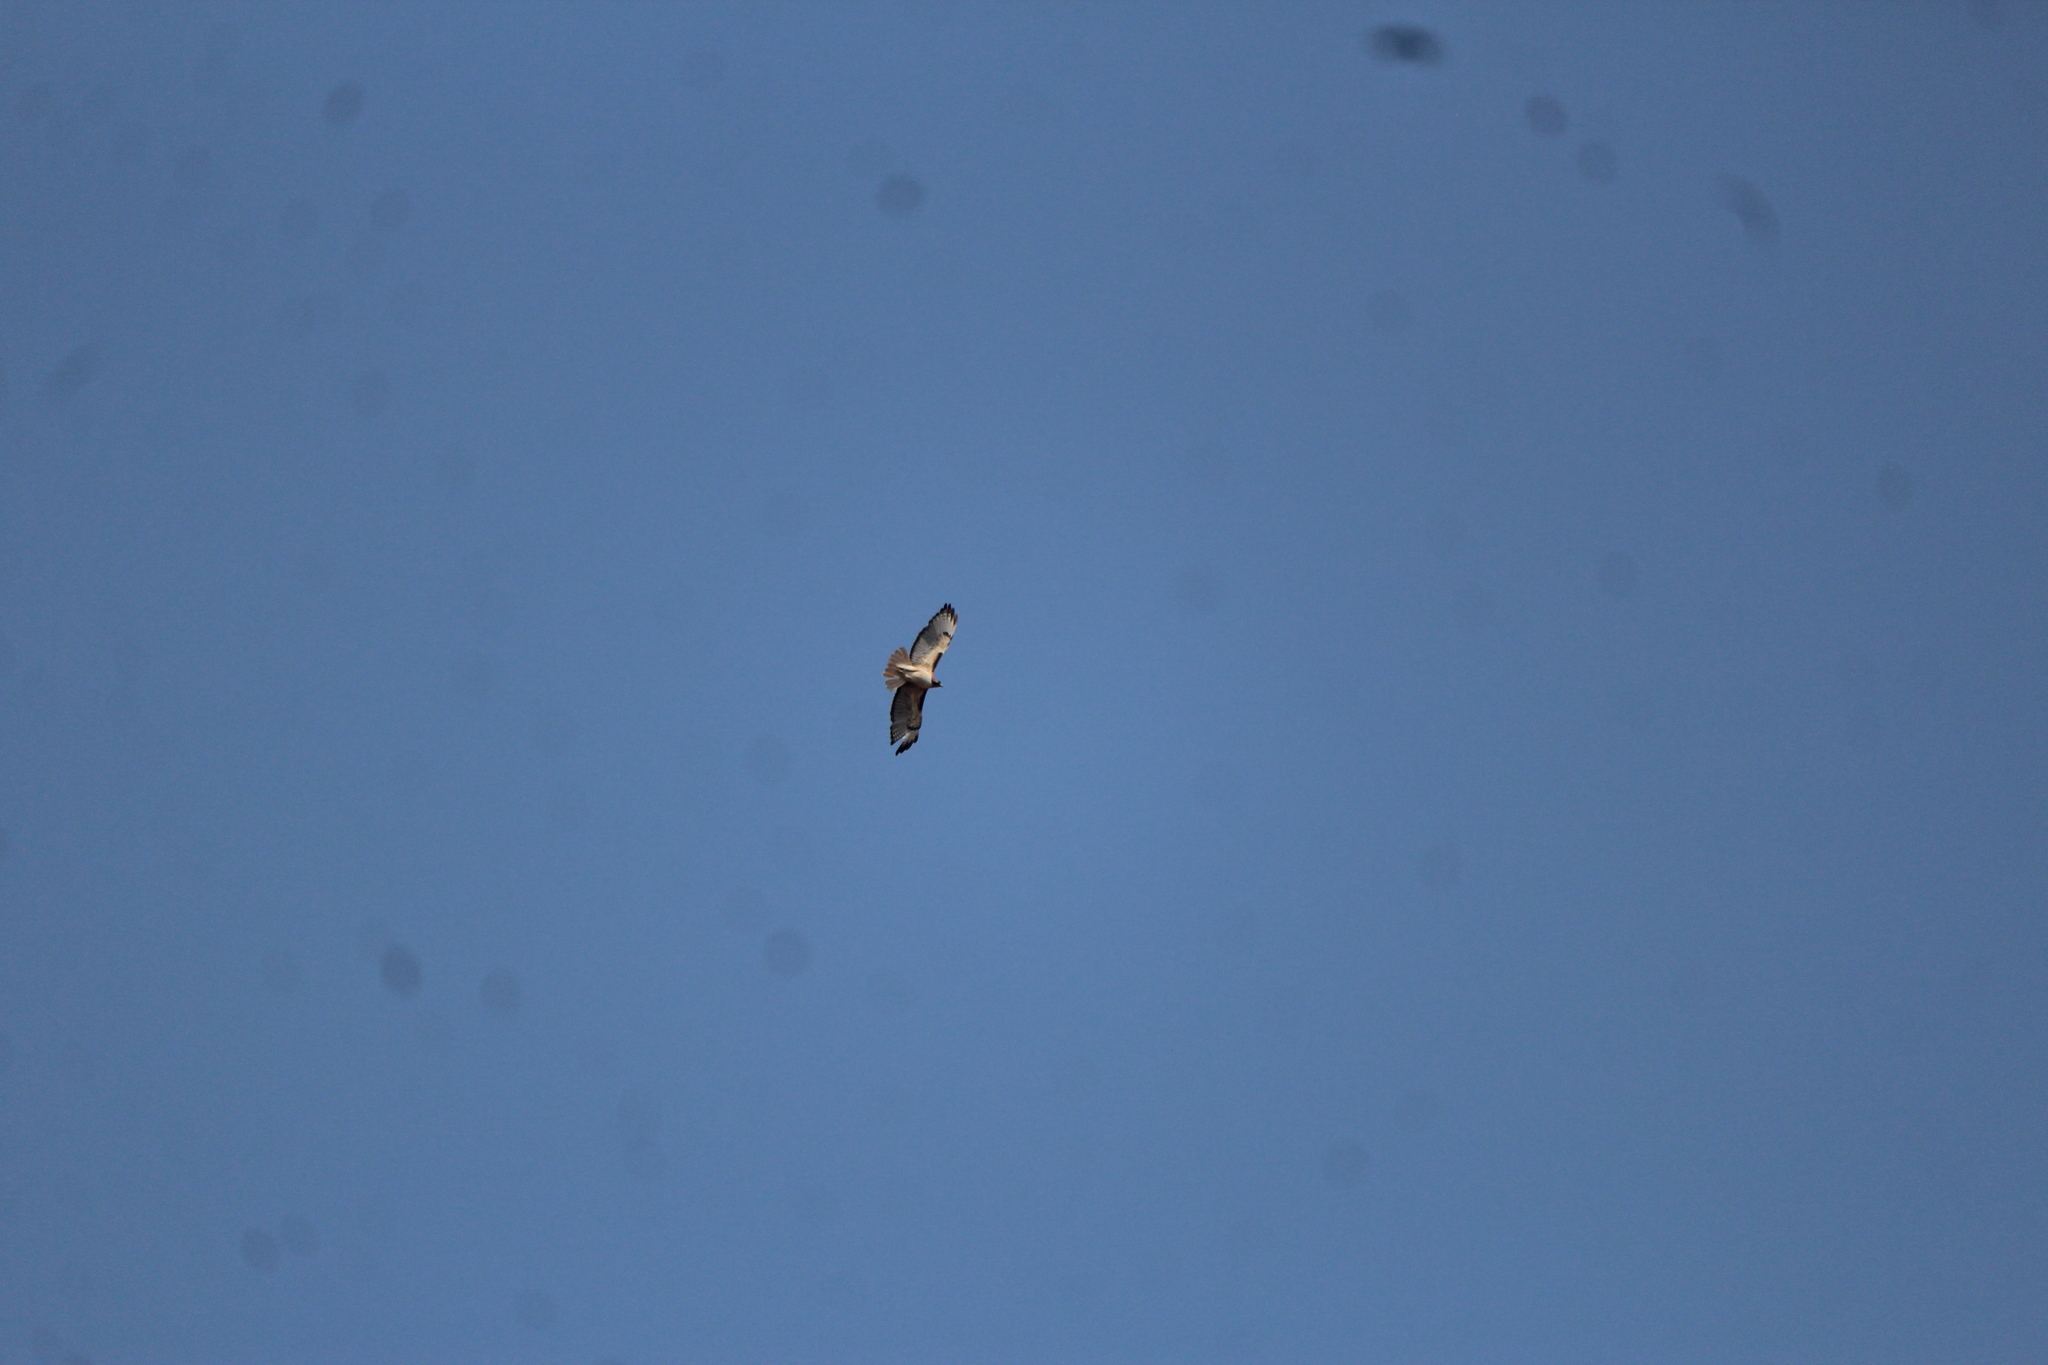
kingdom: Animalia
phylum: Chordata
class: Aves
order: Accipitriformes
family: Accipitridae
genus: Buteo
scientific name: Buteo jamaicensis
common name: Red-tailed hawk
